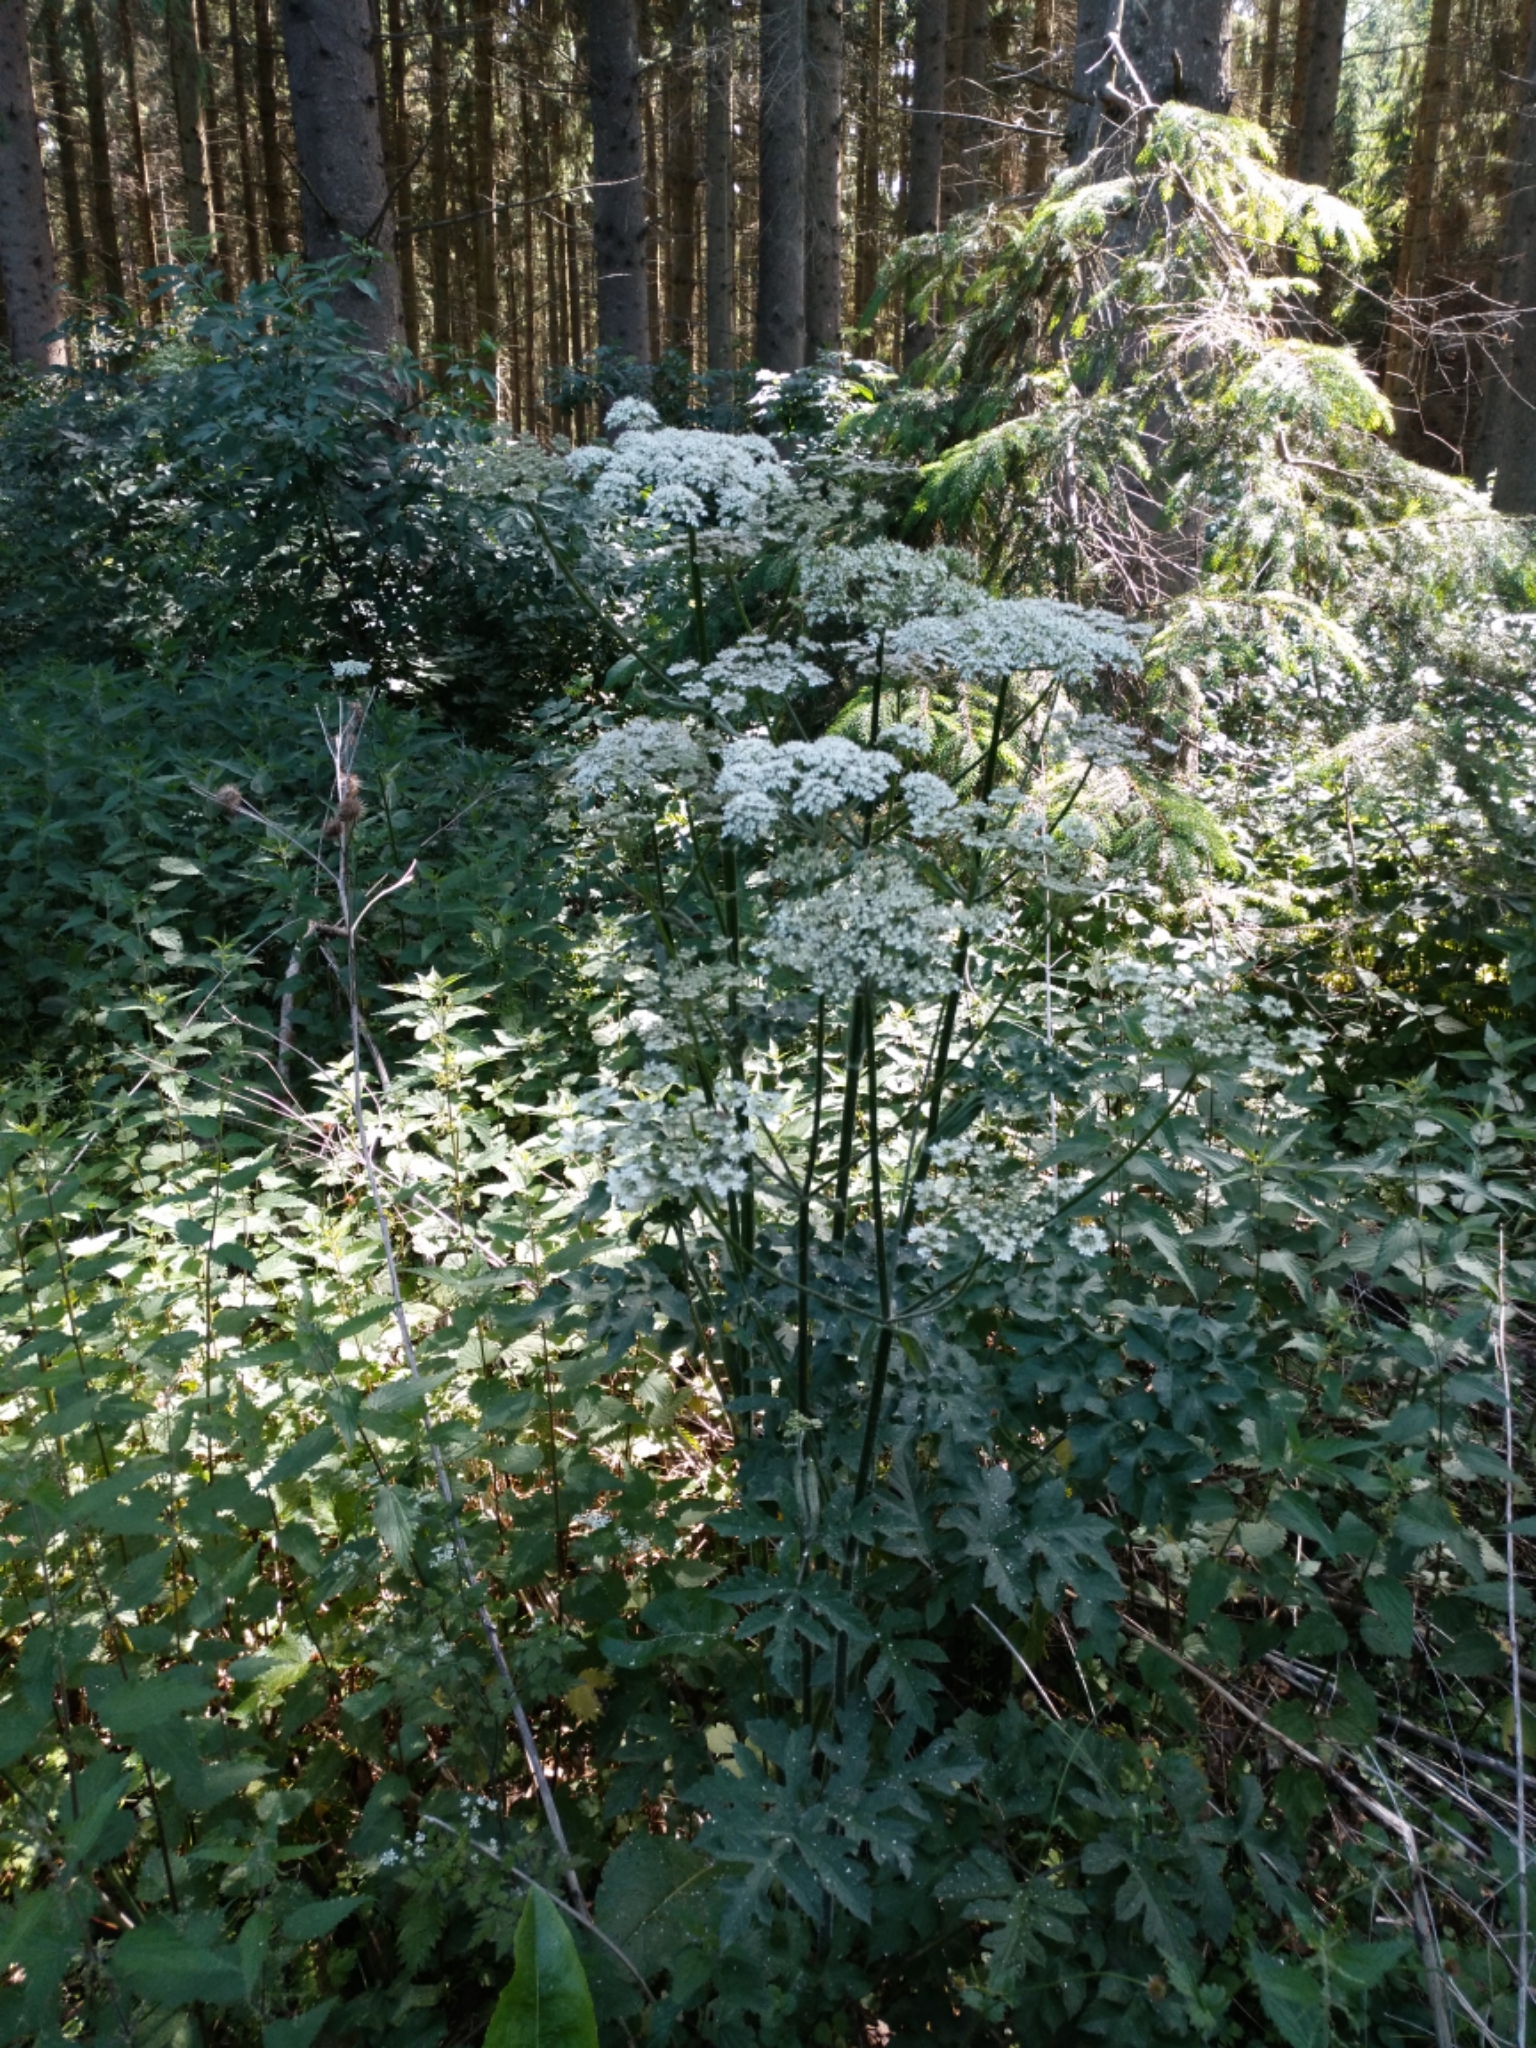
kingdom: Plantae
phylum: Tracheophyta
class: Magnoliopsida
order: Apiales
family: Apiaceae
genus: Heracleum
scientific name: Heracleum sphondylium
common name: Hogweed
